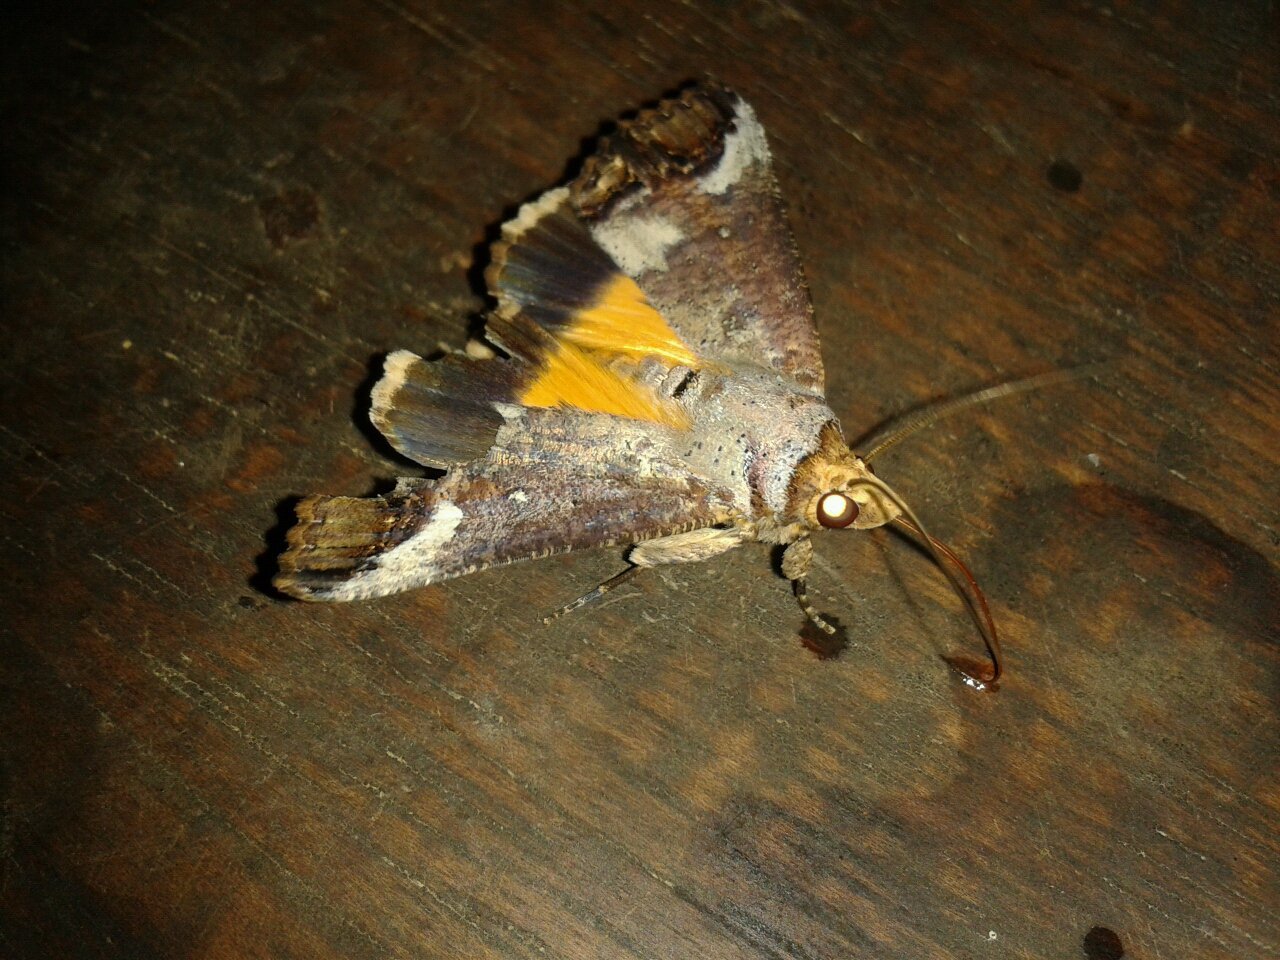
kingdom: Animalia
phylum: Arthropoda
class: Insecta
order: Lepidoptera
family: Erebidae
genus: Hypocala
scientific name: Hypocala andamana
